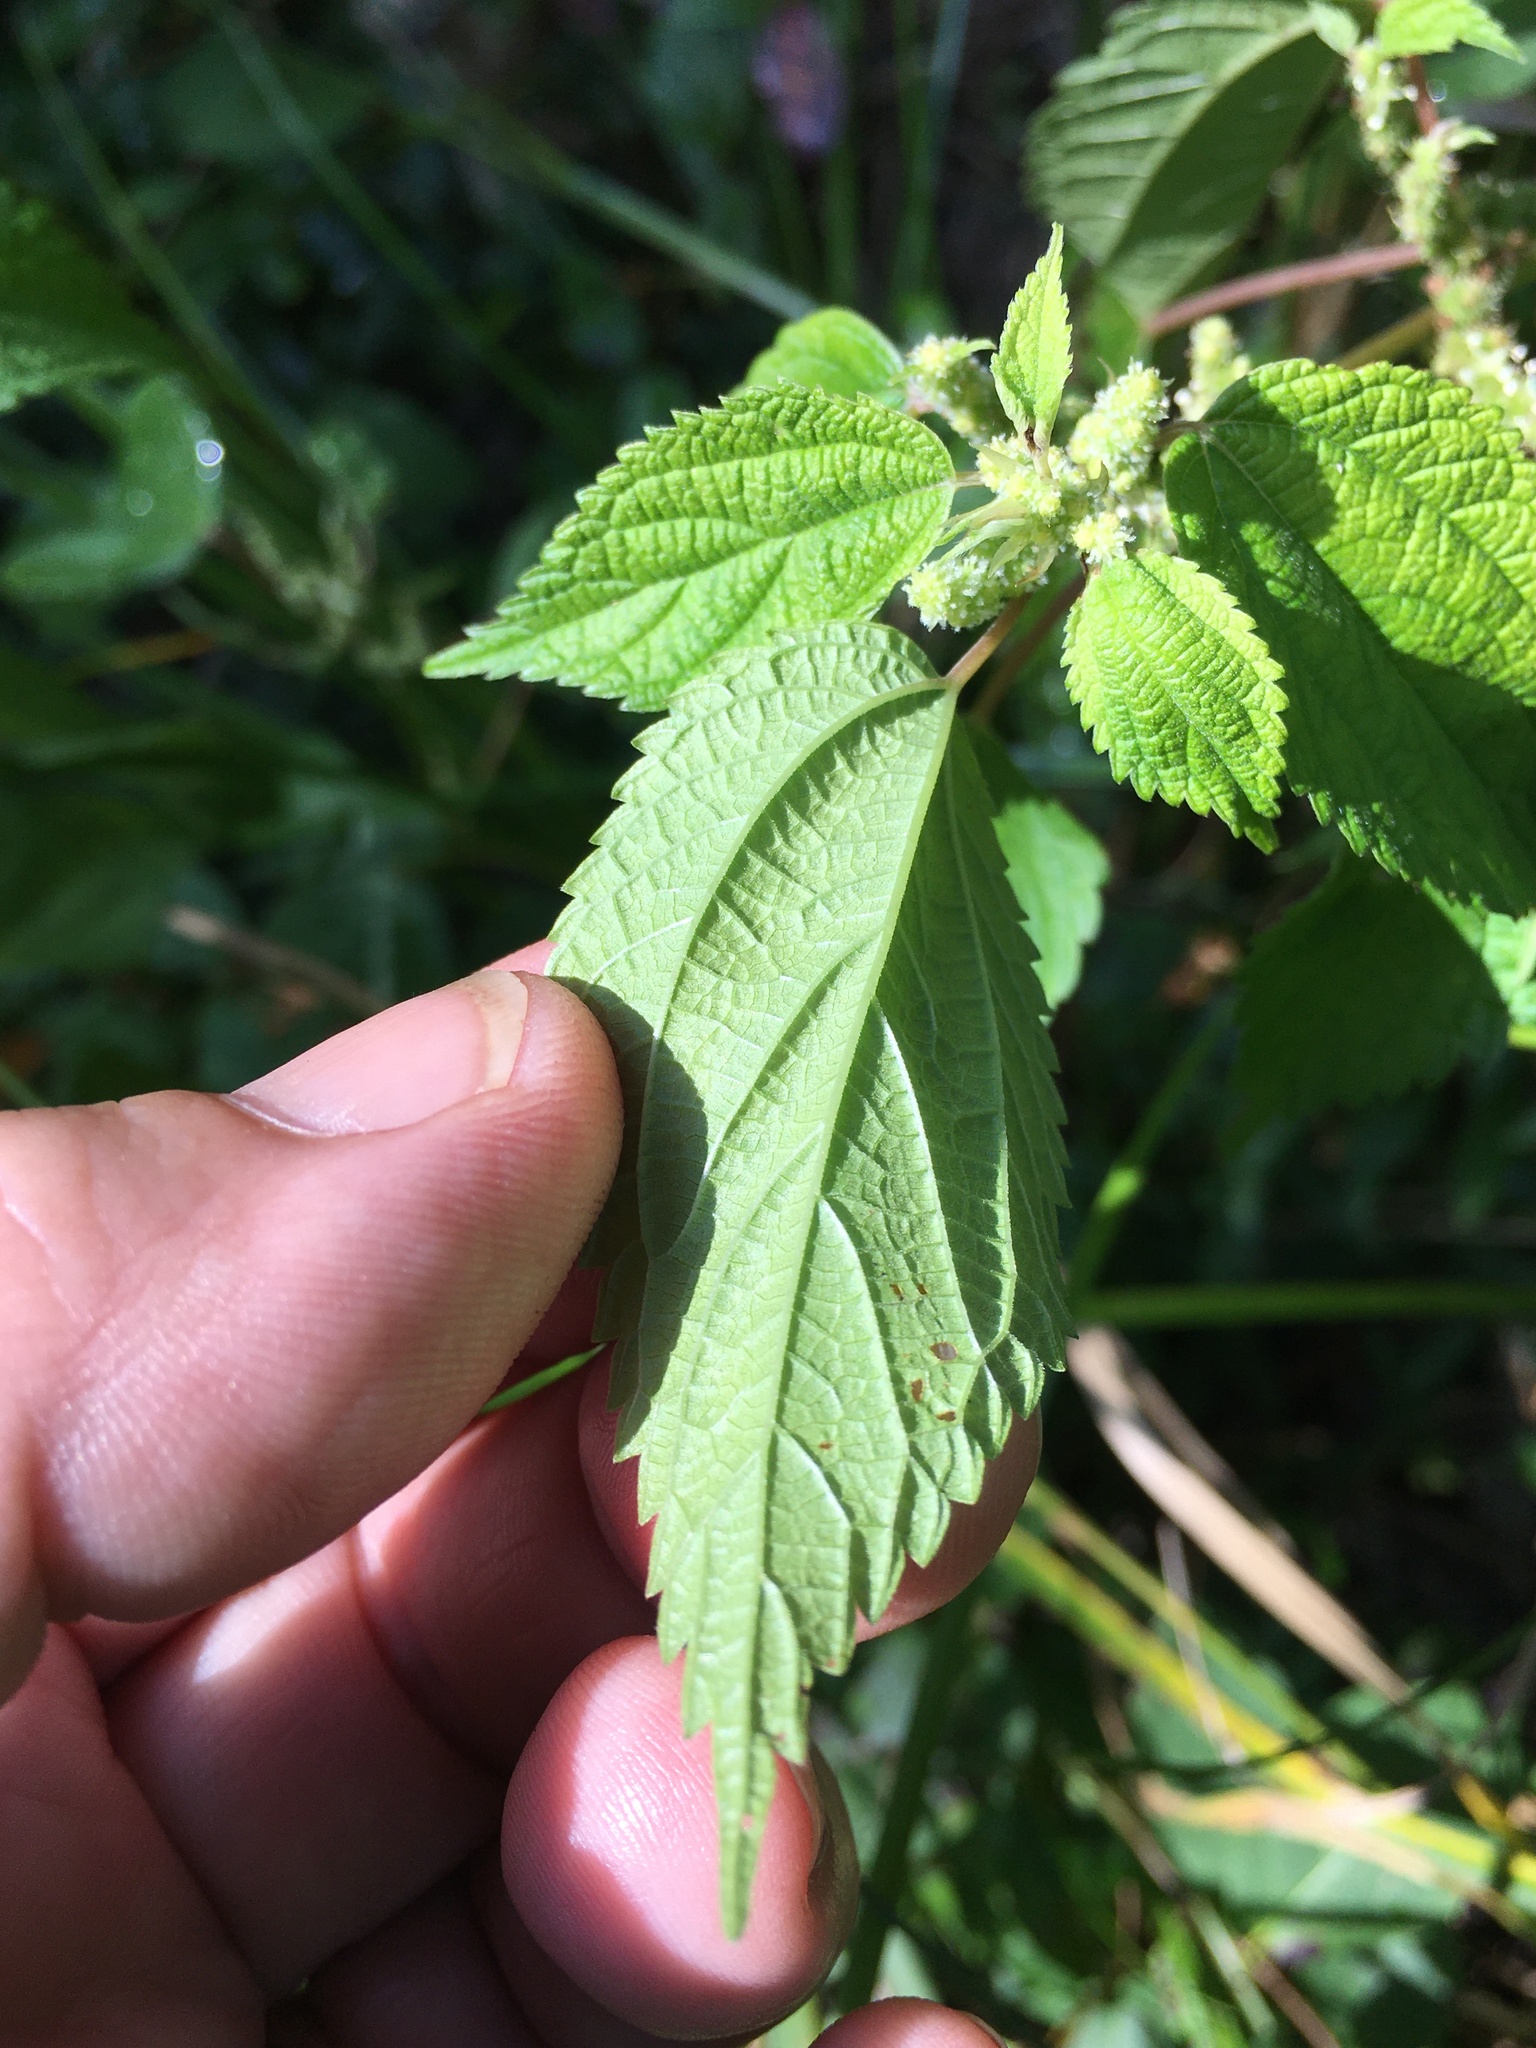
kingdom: Plantae
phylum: Tracheophyta
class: Magnoliopsida
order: Rosales
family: Urticaceae
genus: Boehmeria
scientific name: Boehmeria cylindrica
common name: Bog-hemp
